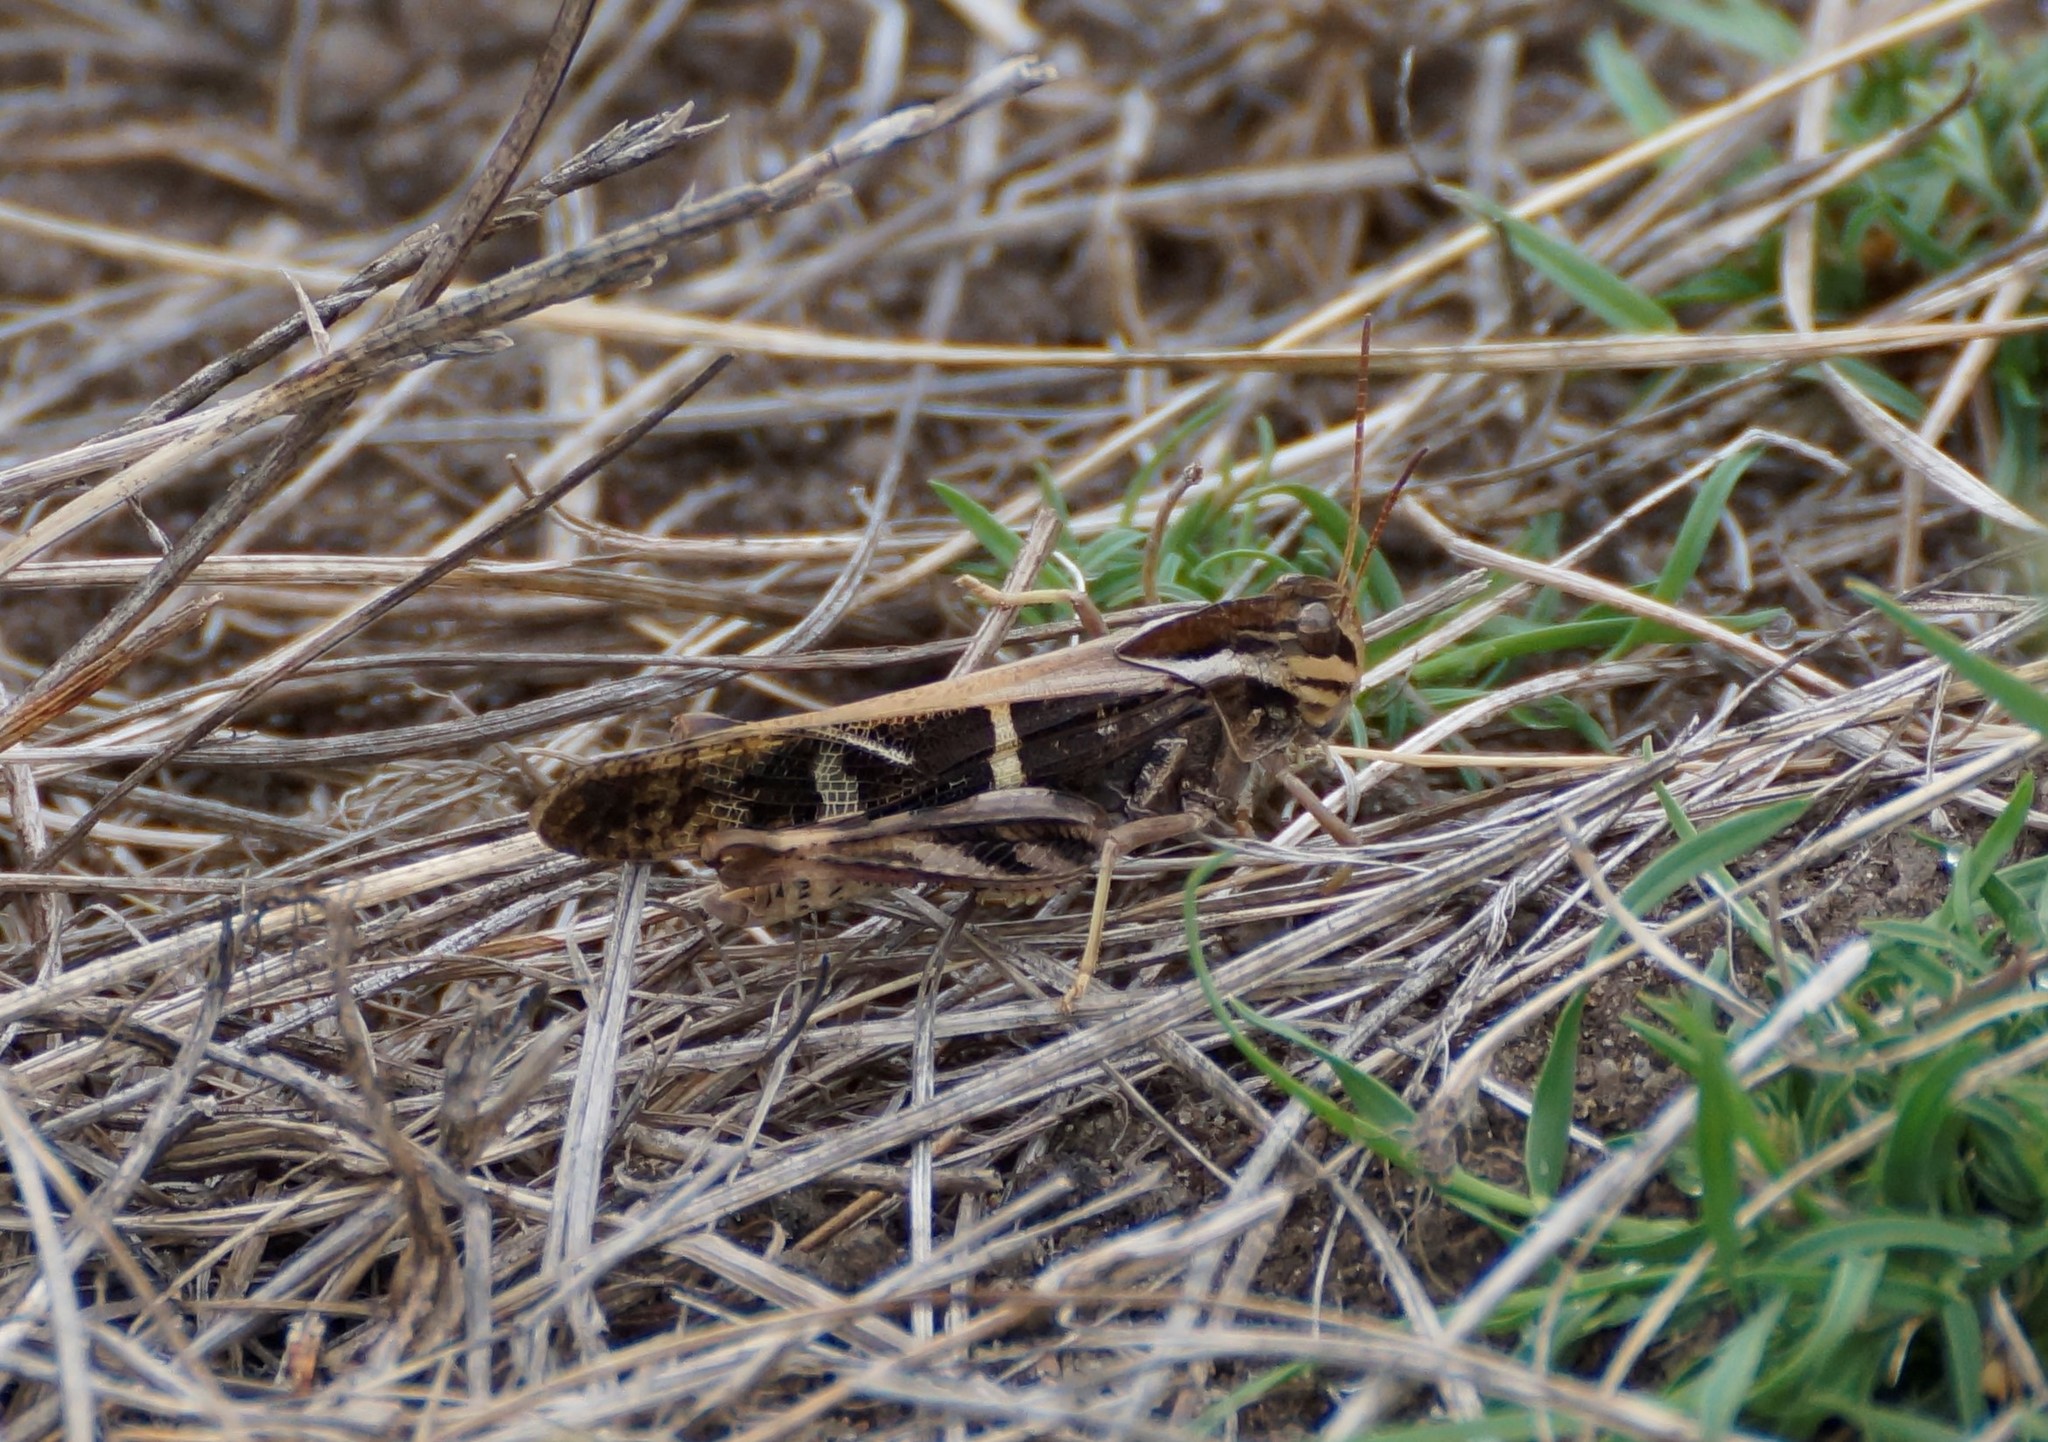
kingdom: Animalia
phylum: Arthropoda
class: Insecta
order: Orthoptera
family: Acrididae
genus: Gastrimargus
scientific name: Gastrimargus musicus
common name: Yellow-winged locust
